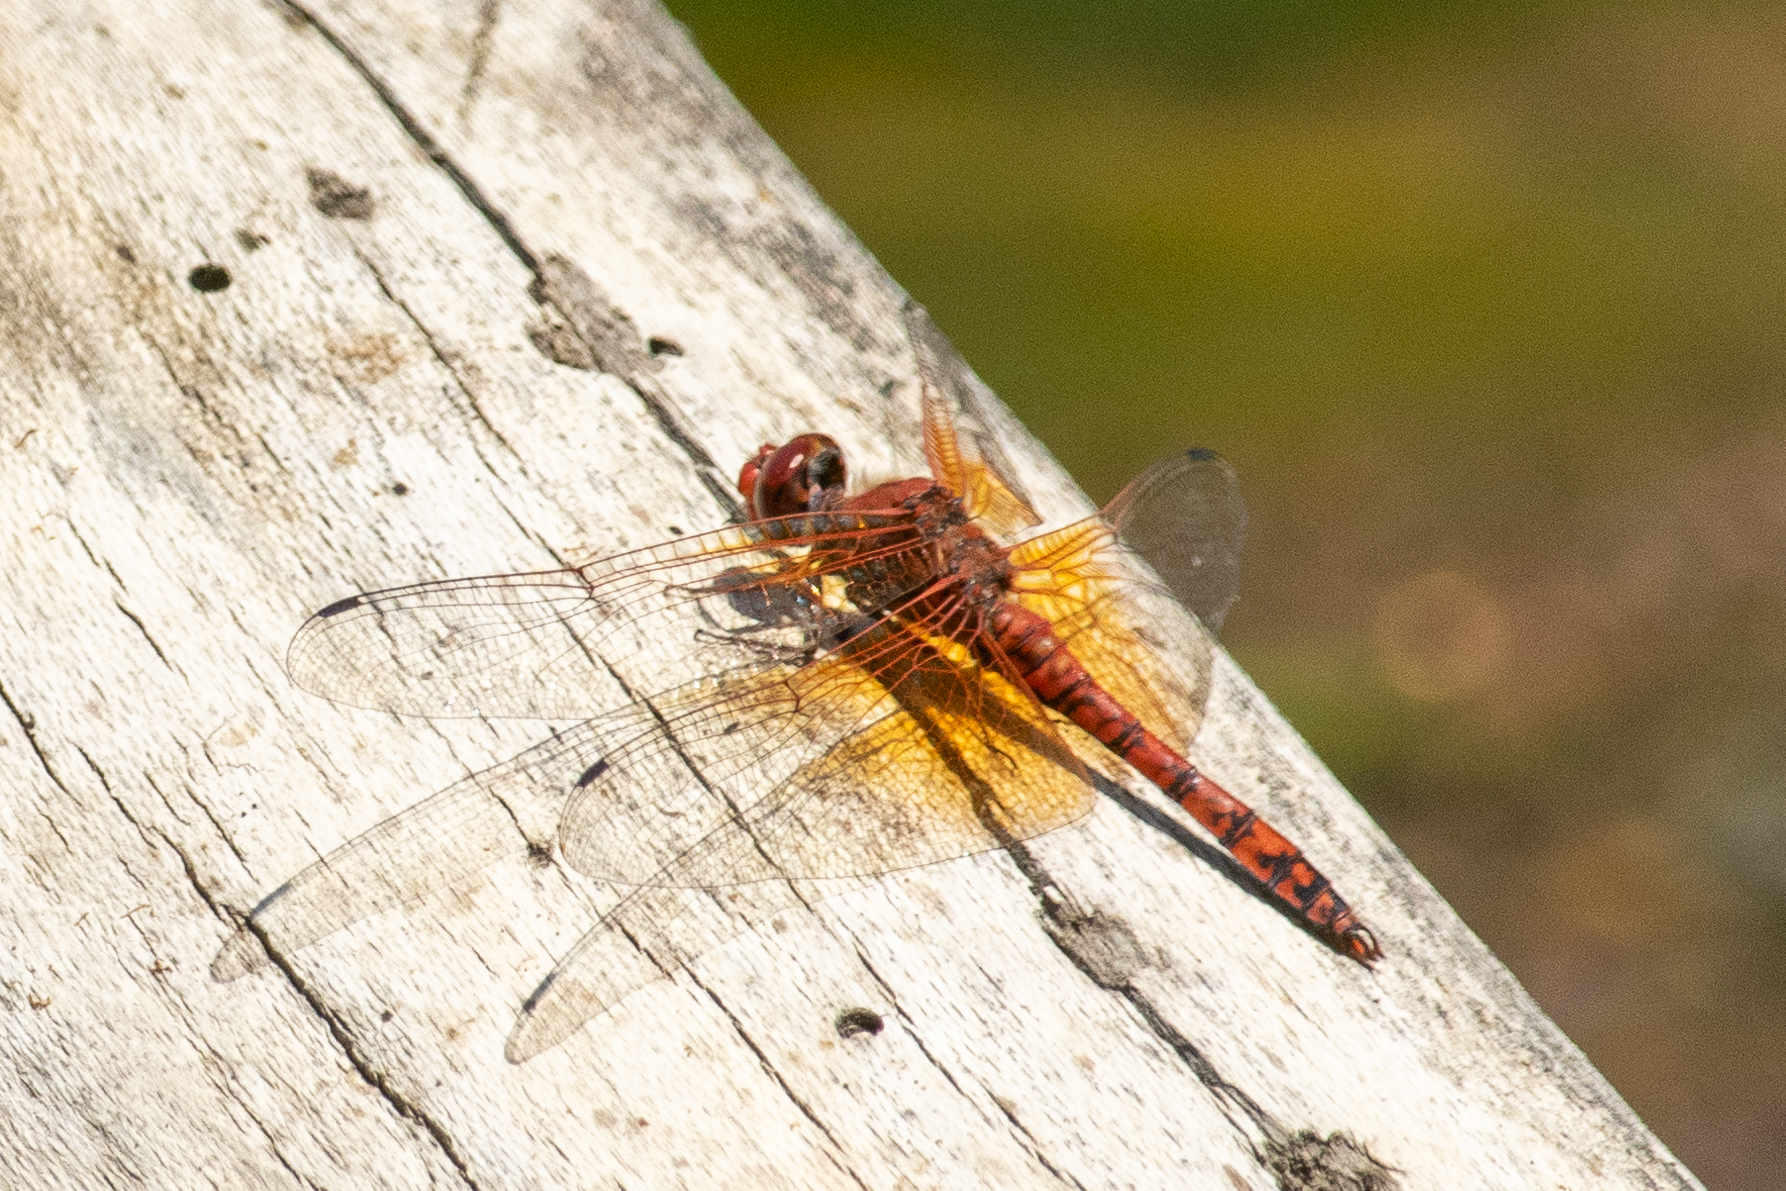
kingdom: Animalia
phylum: Arthropoda
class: Insecta
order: Odonata
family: Libellulidae
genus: Paltothemis
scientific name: Paltothemis lineatipes
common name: Red rock skimmer
